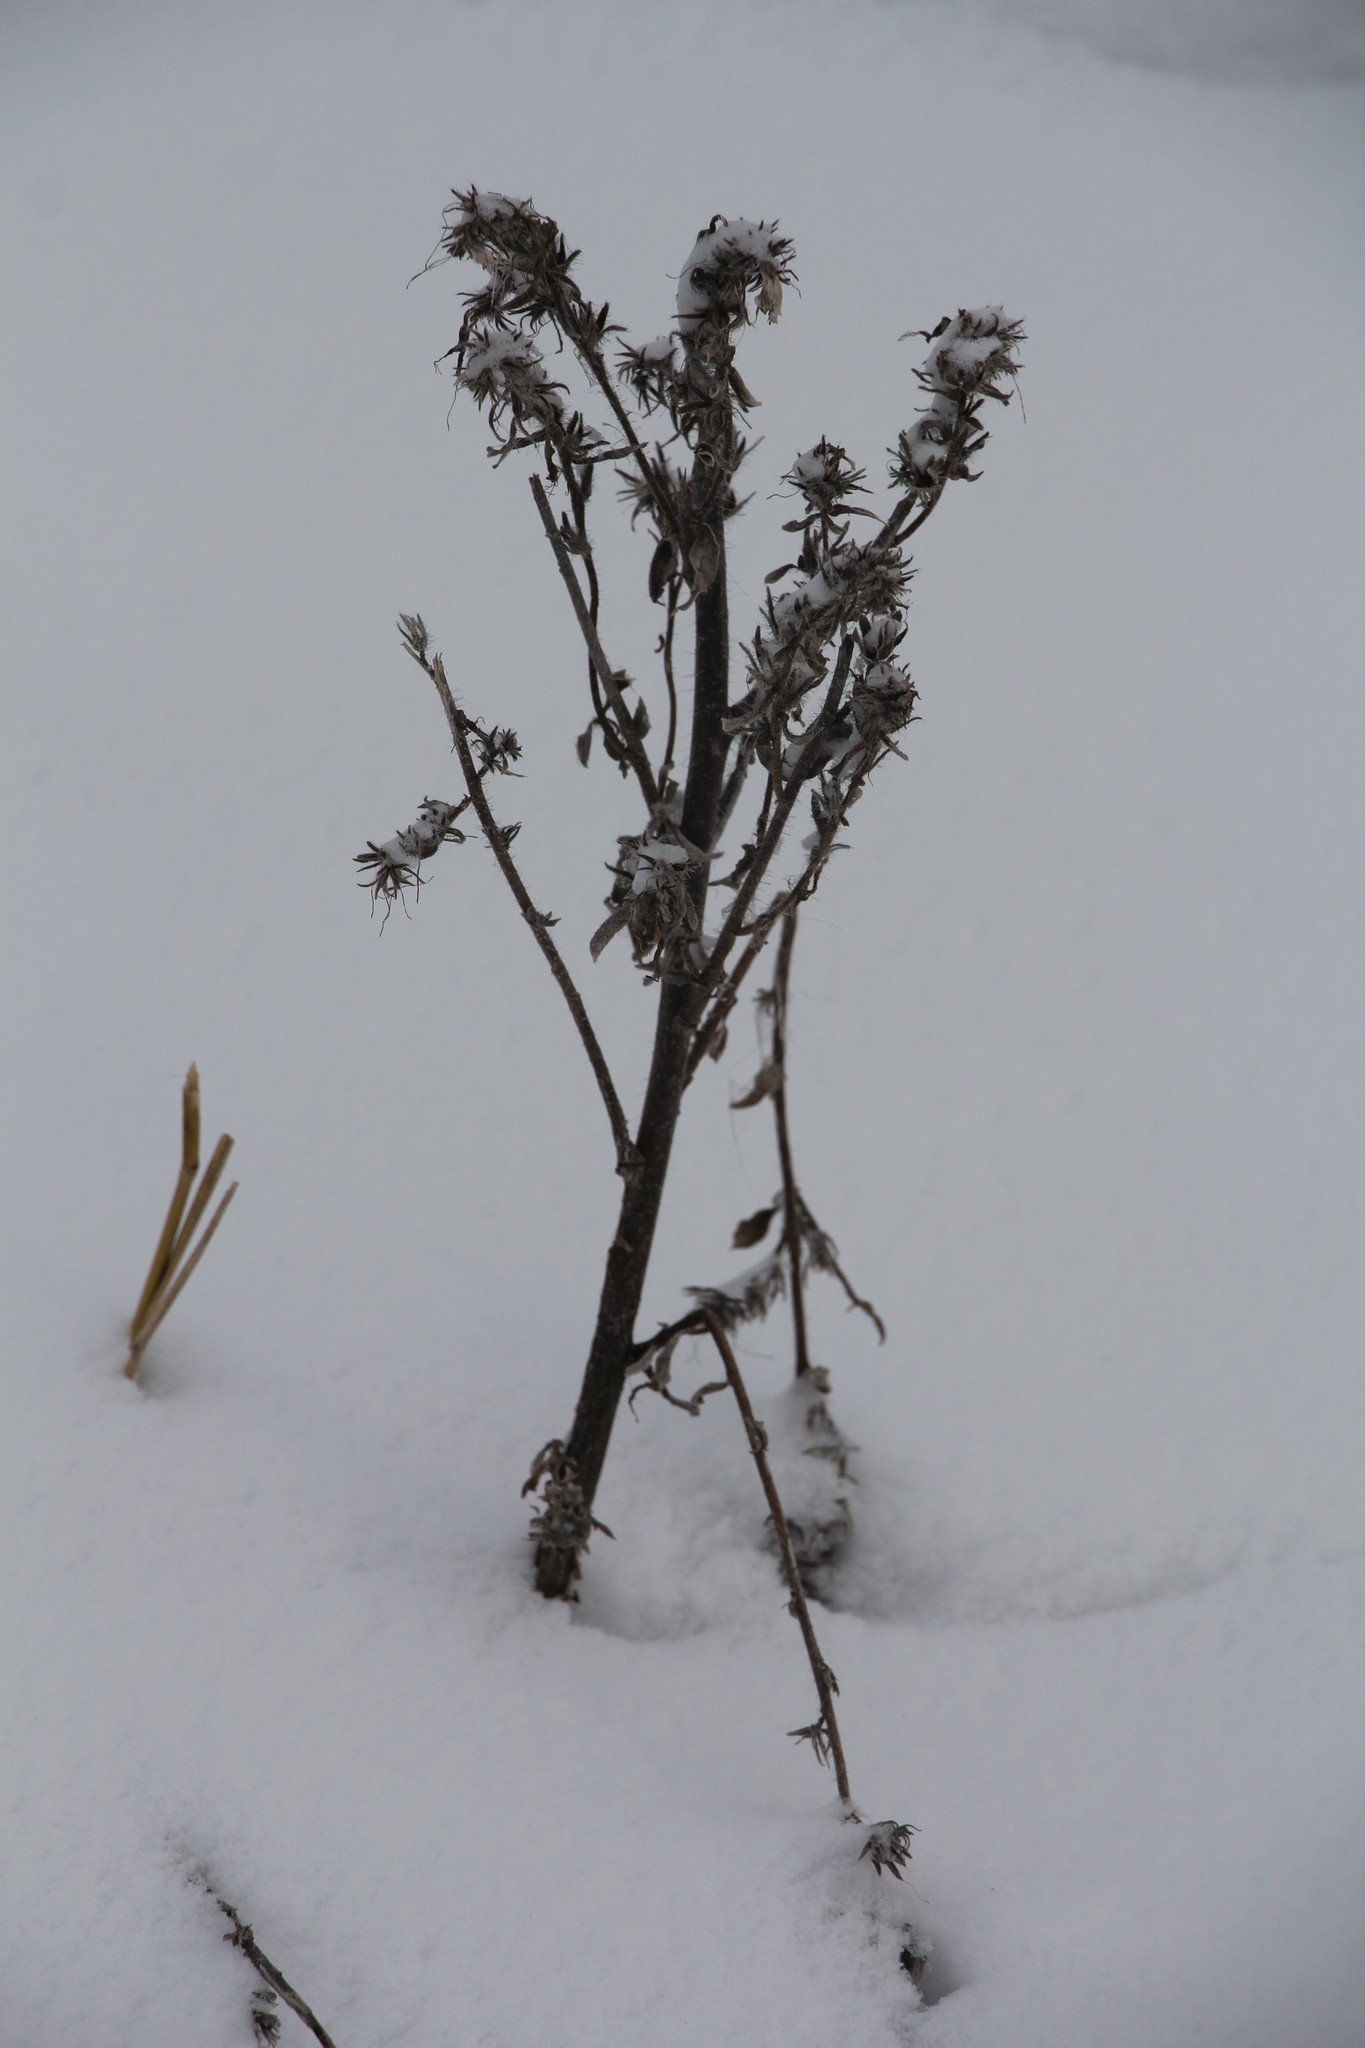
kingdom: Plantae
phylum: Tracheophyta
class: Magnoliopsida
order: Boraginales
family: Boraginaceae
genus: Echium
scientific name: Echium vulgare
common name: Common viper's bugloss
